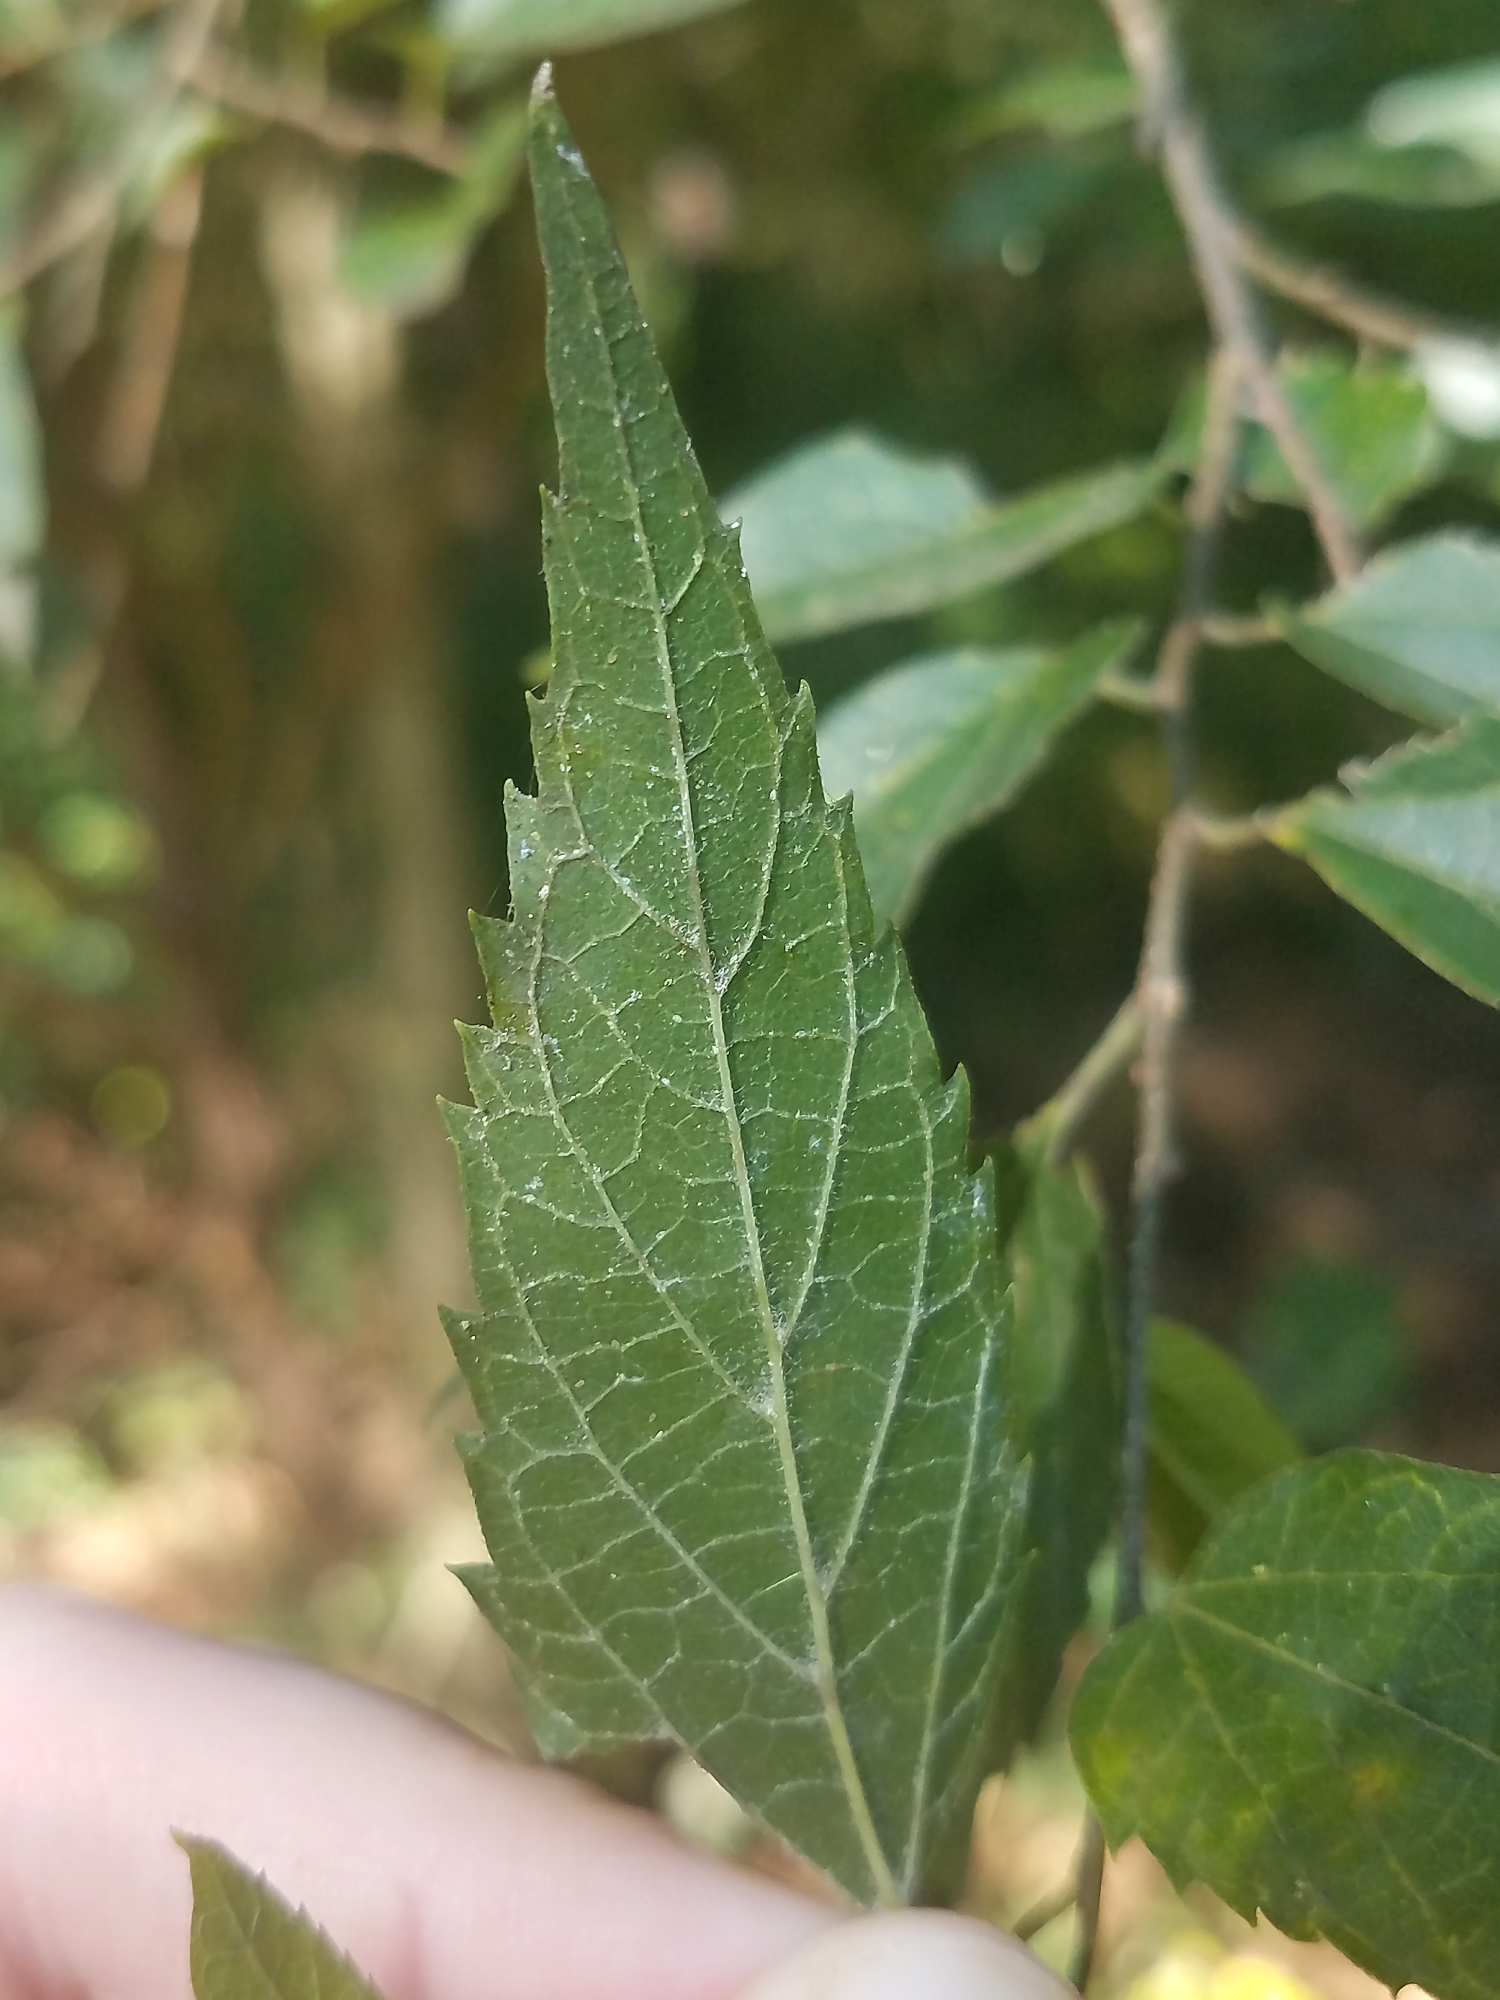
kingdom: Plantae
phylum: Tracheophyta
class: Magnoliopsida
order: Rosales
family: Cannabaceae
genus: Celtis
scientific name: Celtis laevigata
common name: Sugarberry
